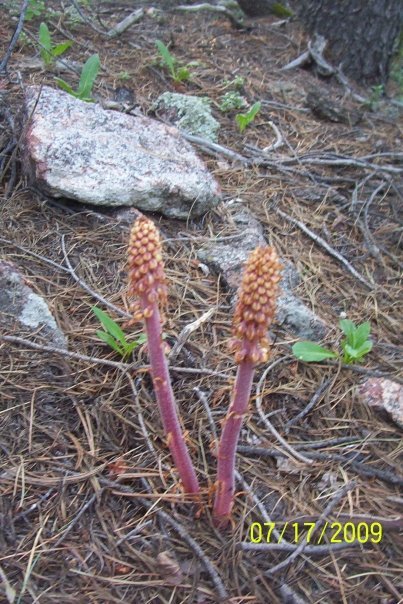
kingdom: Plantae
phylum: Tracheophyta
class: Magnoliopsida
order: Ericales
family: Ericaceae
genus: Pterospora
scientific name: Pterospora andromedea
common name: Giant bird's-nest
